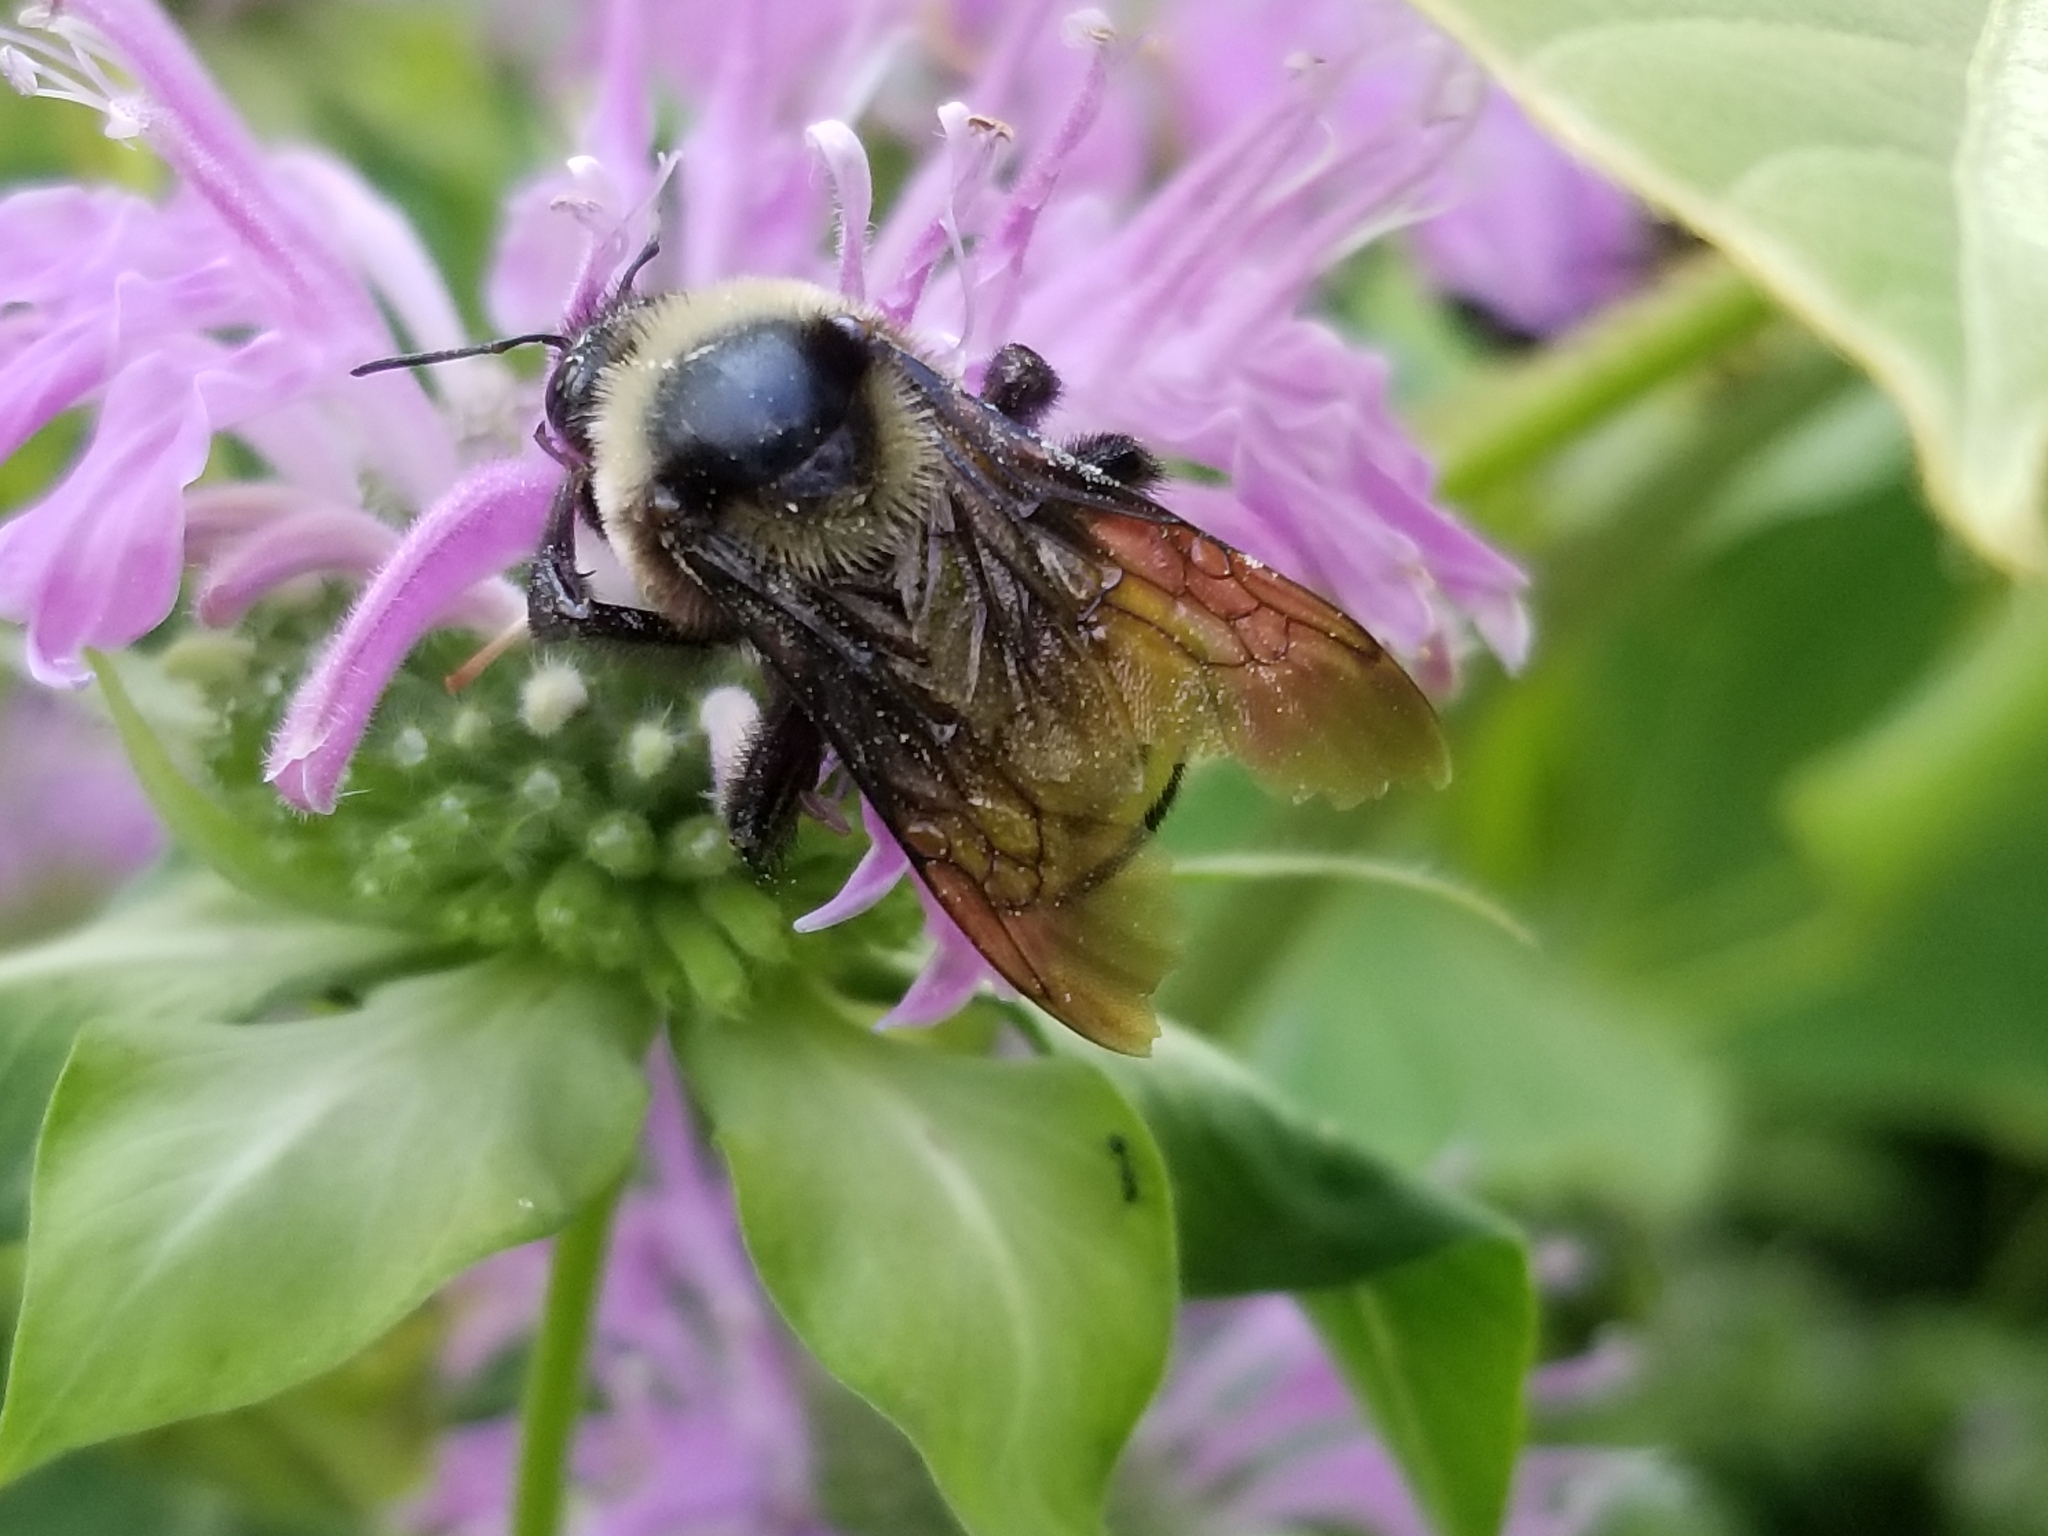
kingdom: Animalia
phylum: Arthropoda
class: Insecta
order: Hymenoptera
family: Apidae
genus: Bombus
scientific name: Bombus auricomus
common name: Black and gold bumble bee
